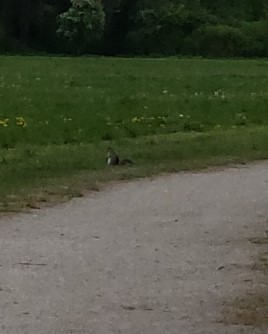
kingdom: Animalia
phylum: Chordata
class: Mammalia
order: Rodentia
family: Sciuridae
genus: Sciurus
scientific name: Sciurus carolinensis
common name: Eastern gray squirrel
